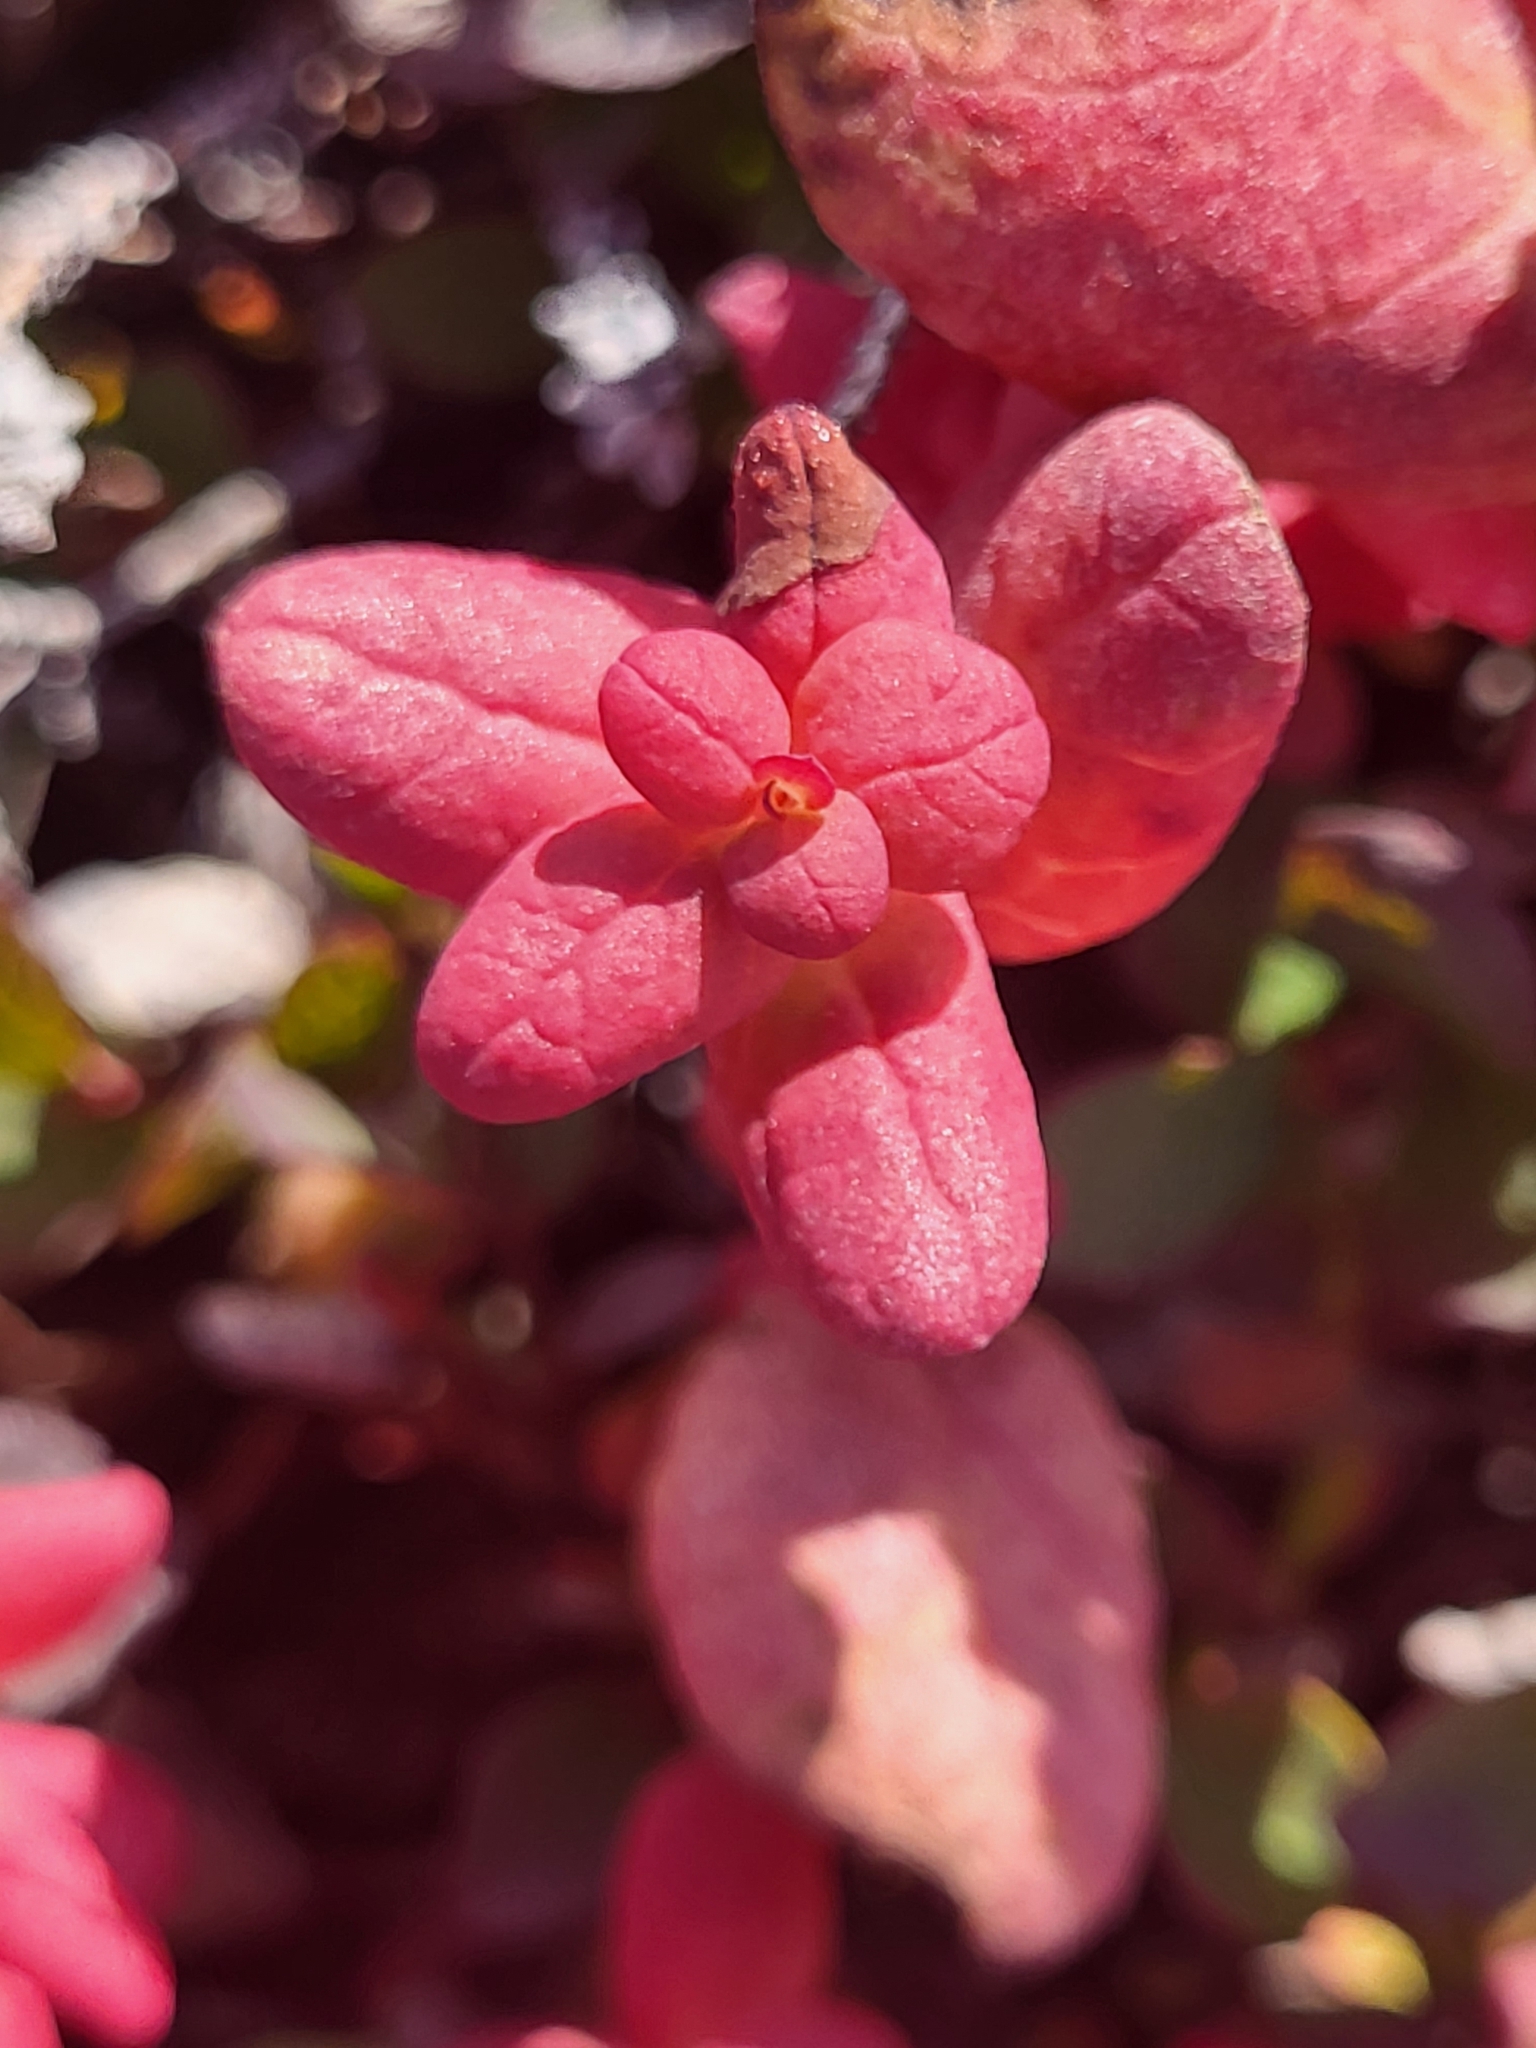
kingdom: Fungi
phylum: Basidiomycota
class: Exobasidiomycetes
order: Exobasidiales
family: Exobasidiaceae
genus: Exobasidium
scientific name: Exobasidium vaccinii-uliginosi
